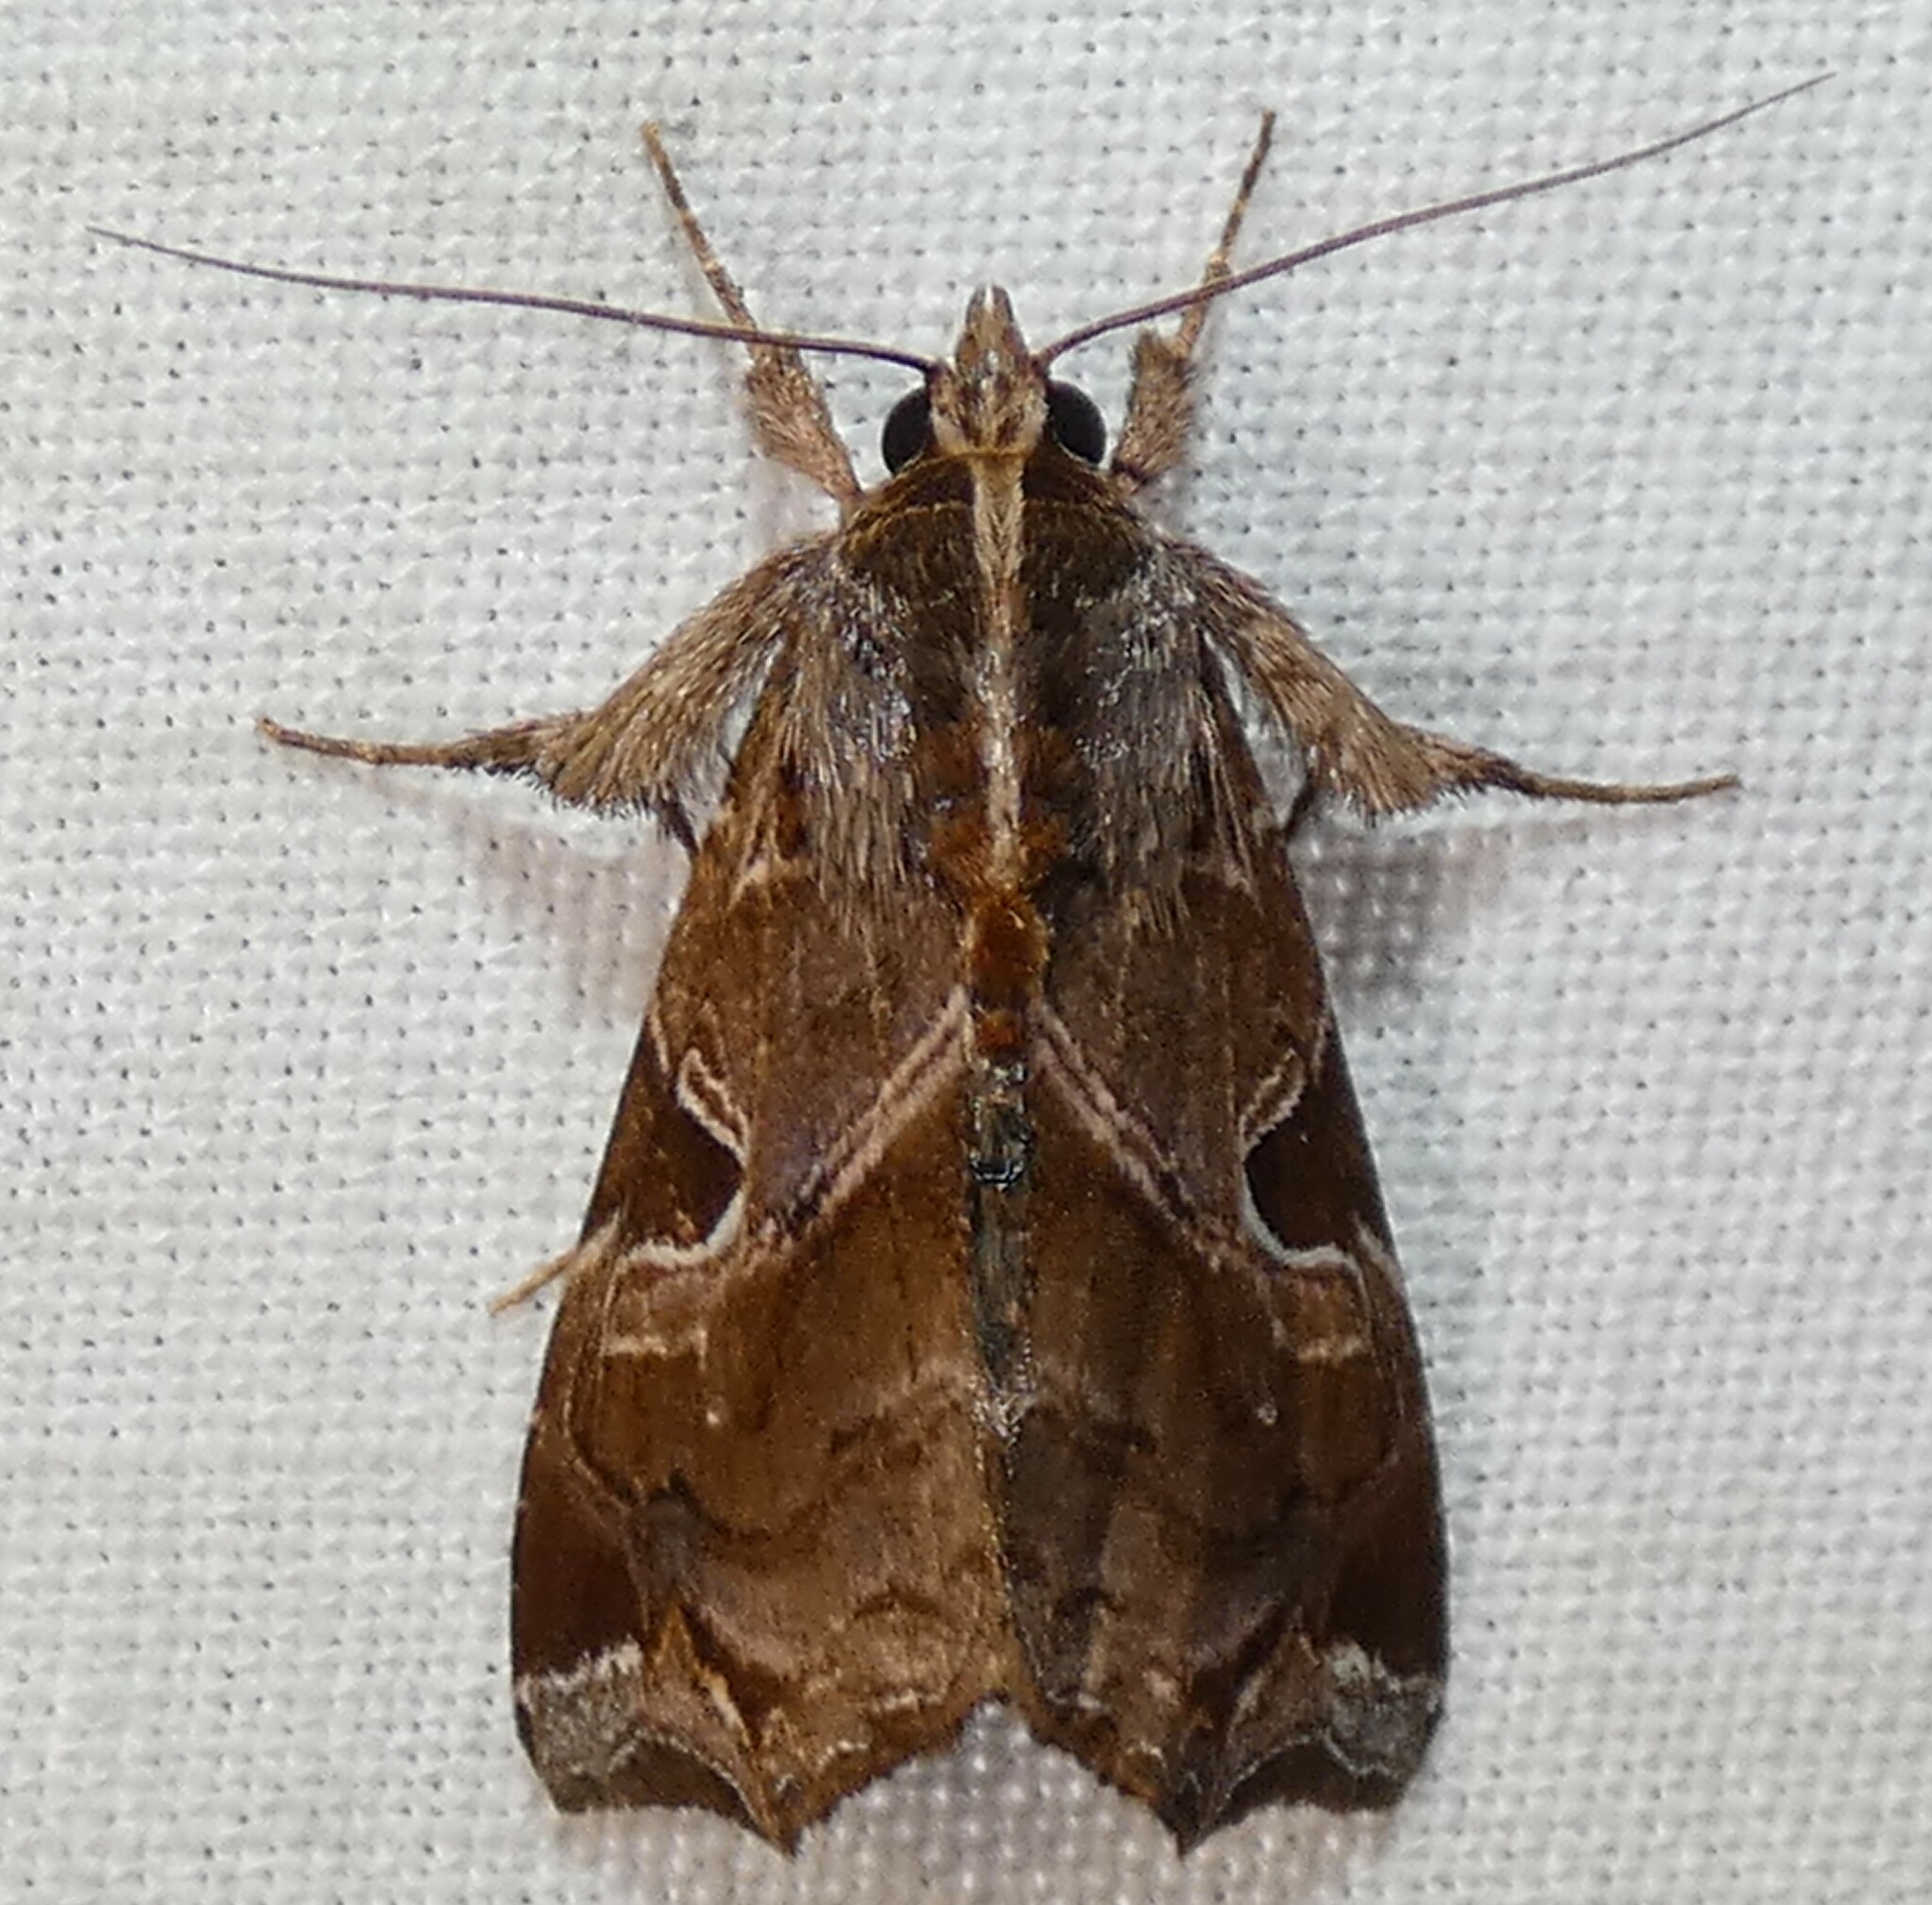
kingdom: Animalia
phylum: Arthropoda
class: Insecta
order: Lepidoptera
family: Noctuidae
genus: Callopistria
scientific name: Callopistria floridensis
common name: Florida fern moth
